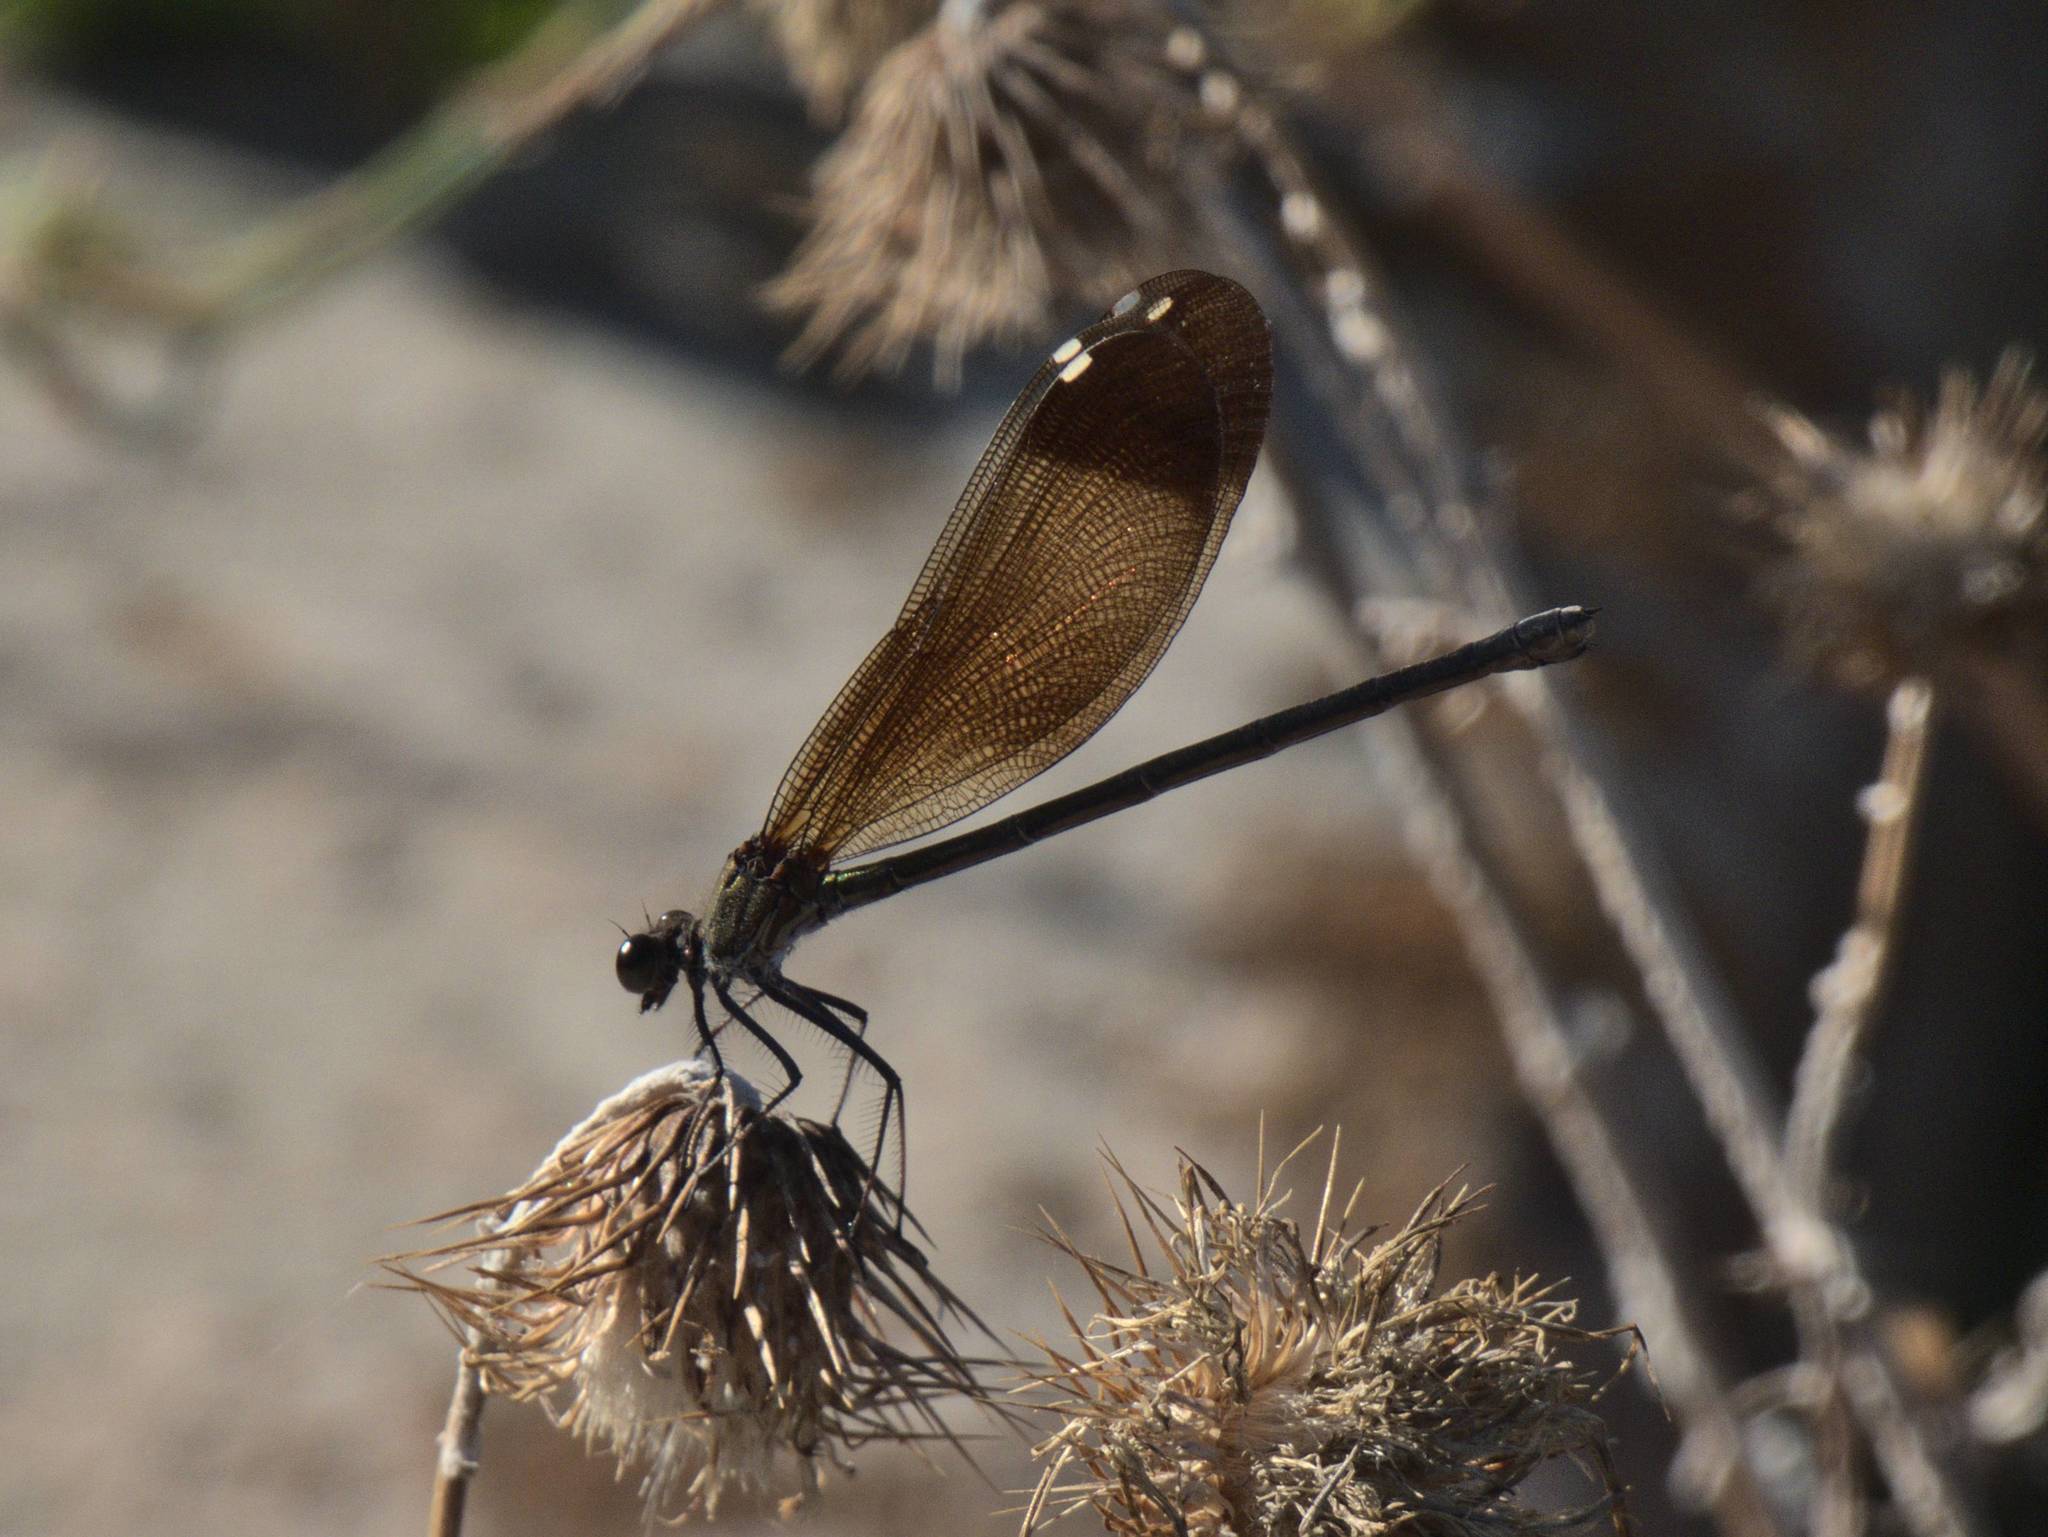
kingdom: Animalia
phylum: Arthropoda
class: Insecta
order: Odonata
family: Calopterygidae
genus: Calopteryx
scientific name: Calopteryx haemorrhoidalis
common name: Copper demoiselle
